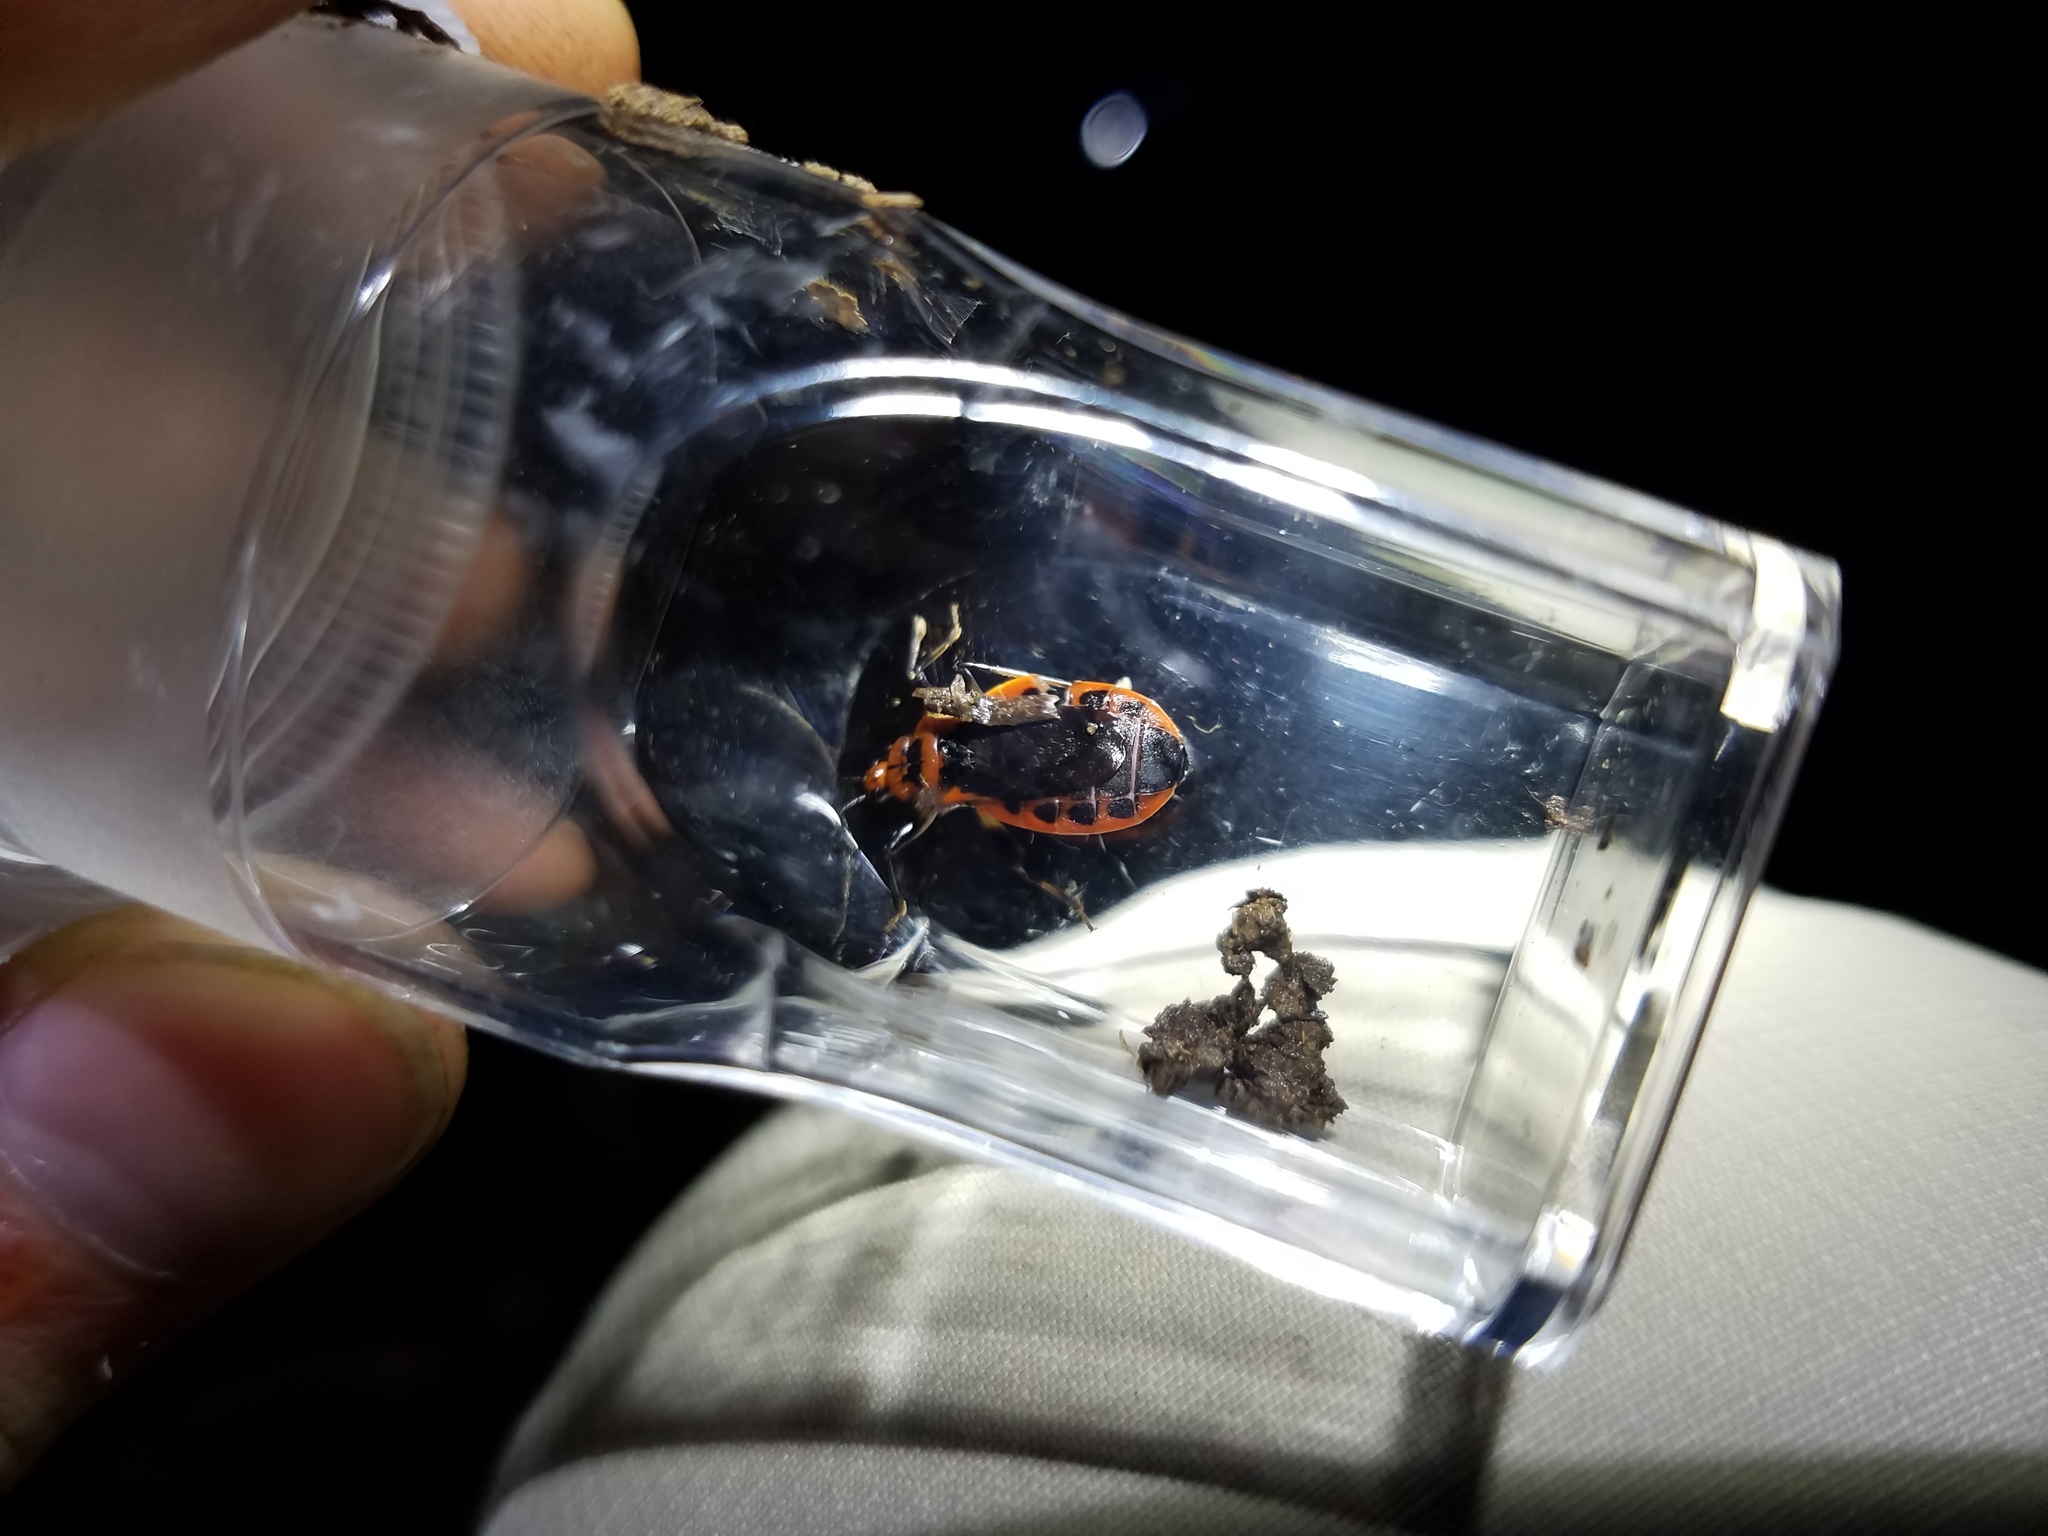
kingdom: Animalia
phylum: Arthropoda
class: Insecta
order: Hemiptera
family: Reduviidae
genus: Rhiginia
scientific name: Rhiginia cruciata
